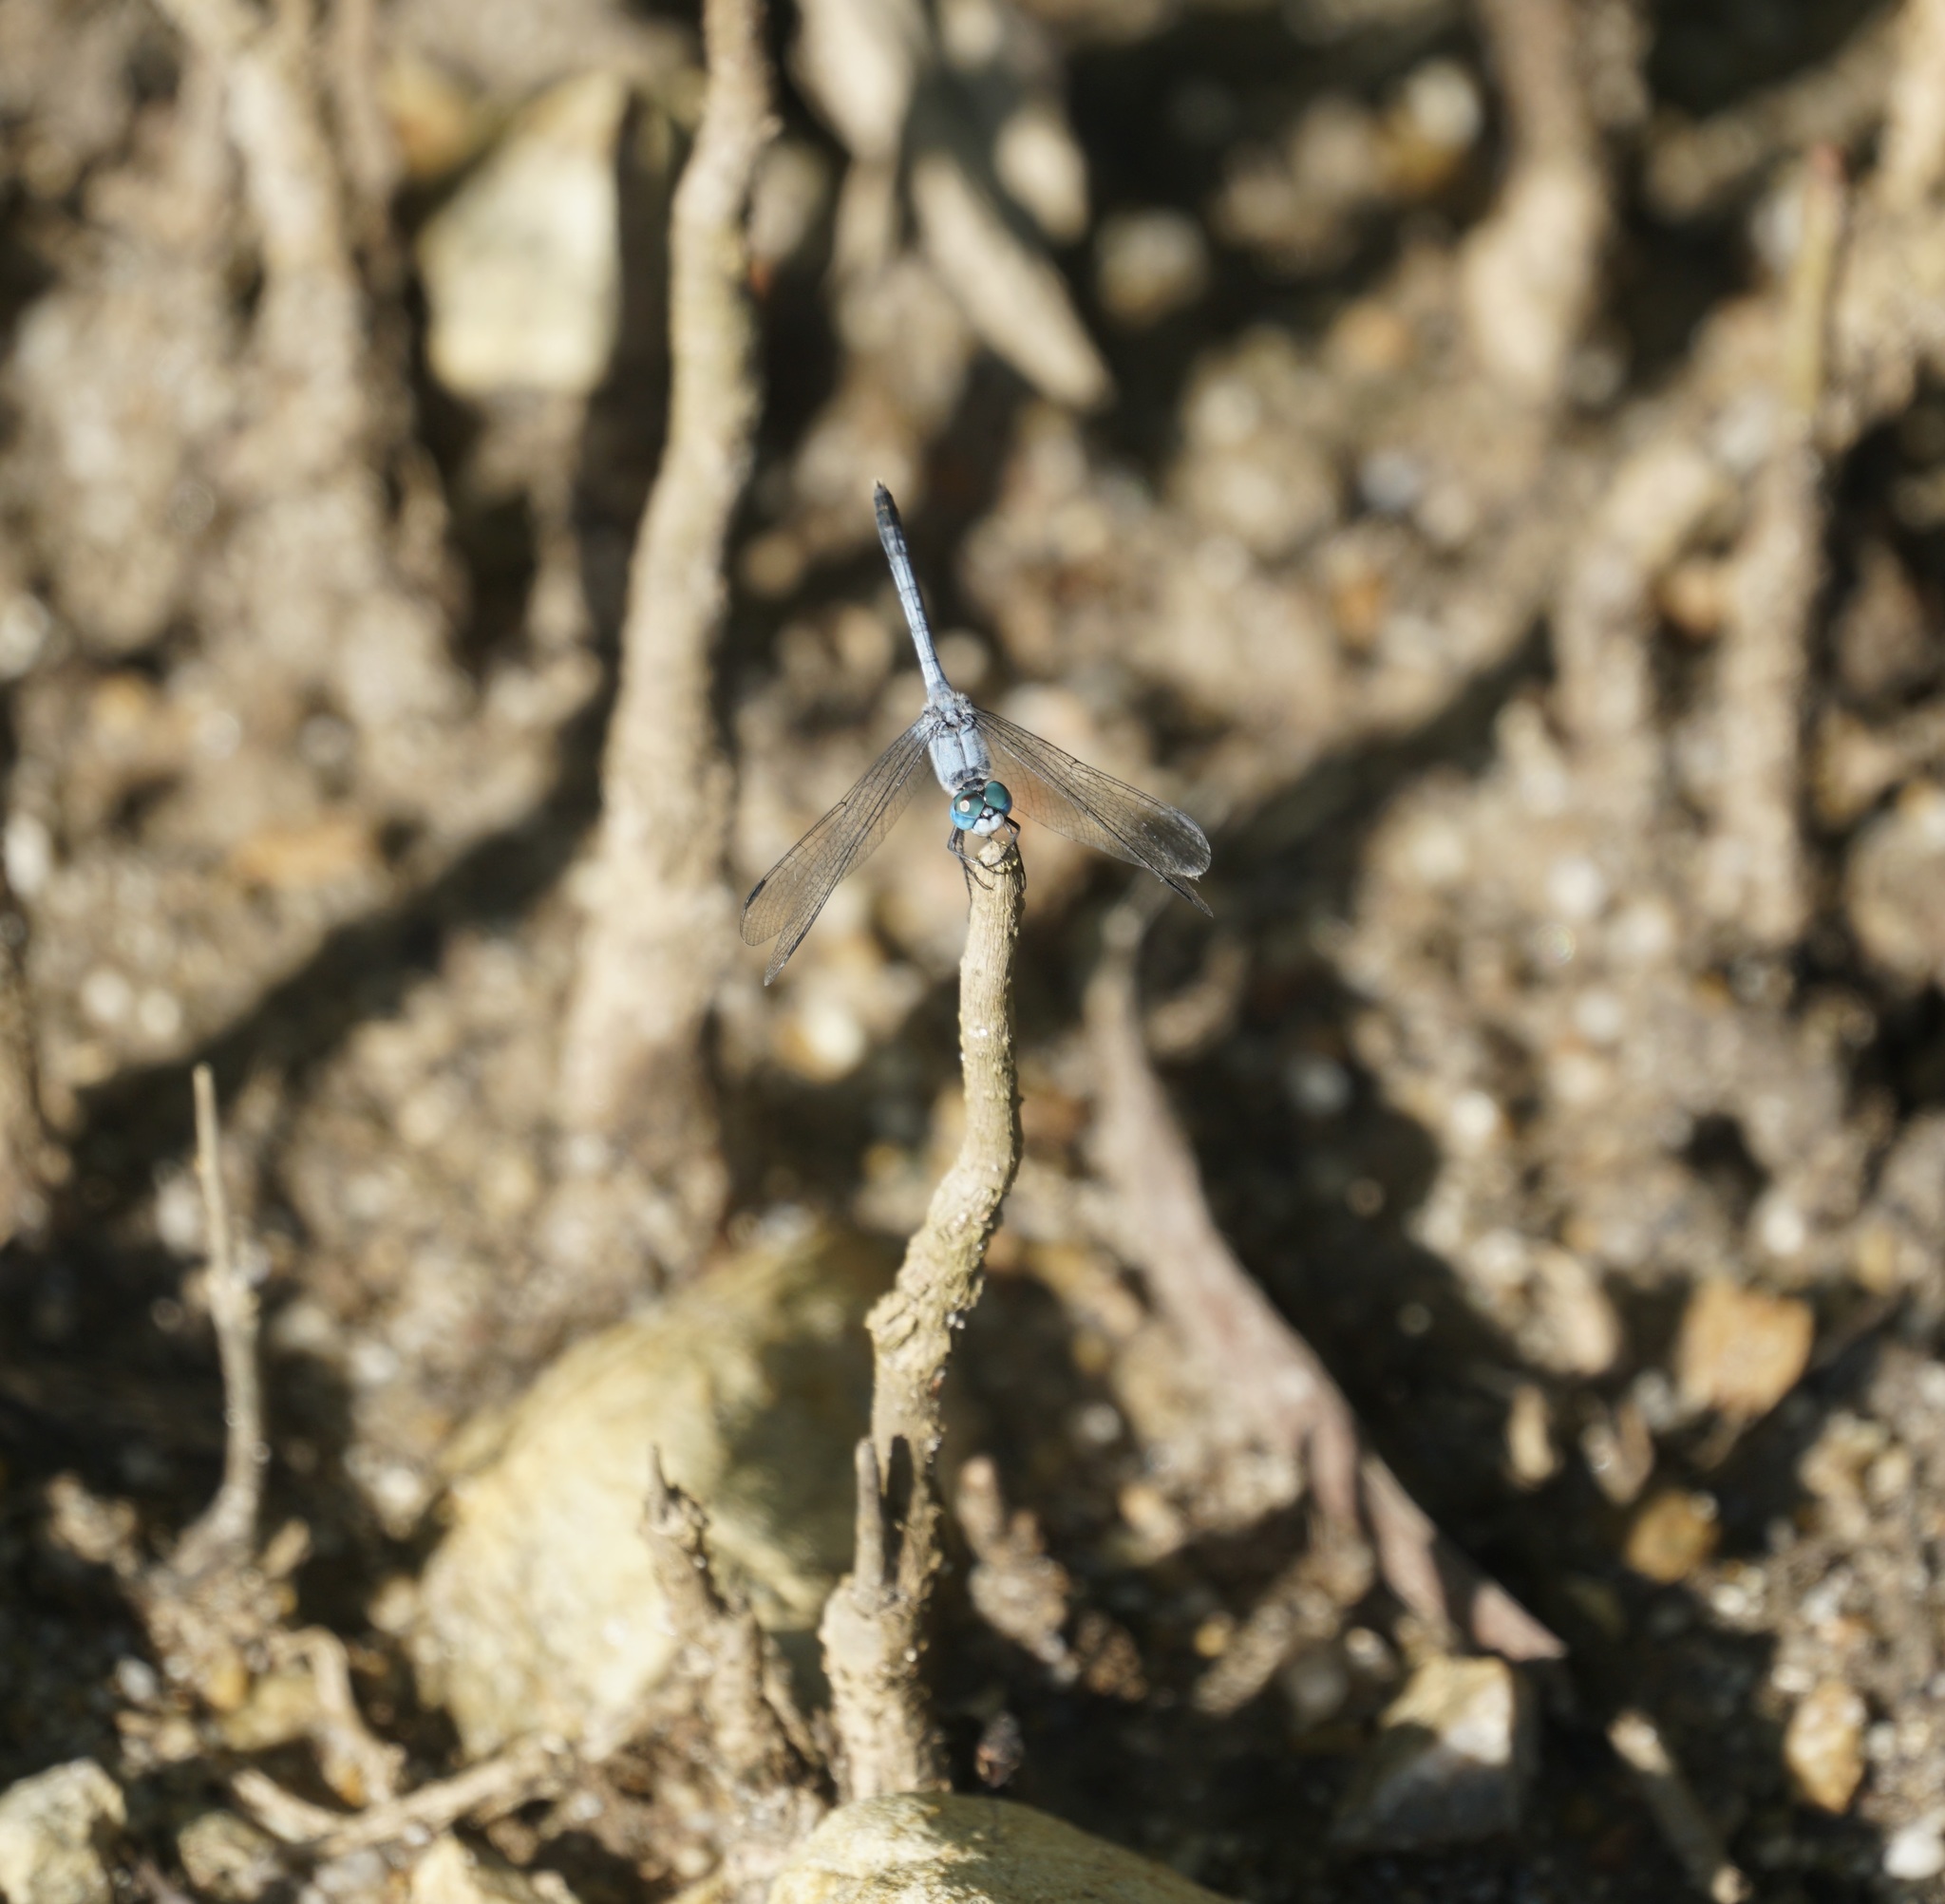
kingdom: Animalia
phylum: Arthropoda
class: Insecta
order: Odonata
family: Libellulidae
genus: Diplacodes
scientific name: Diplacodes trivialis
